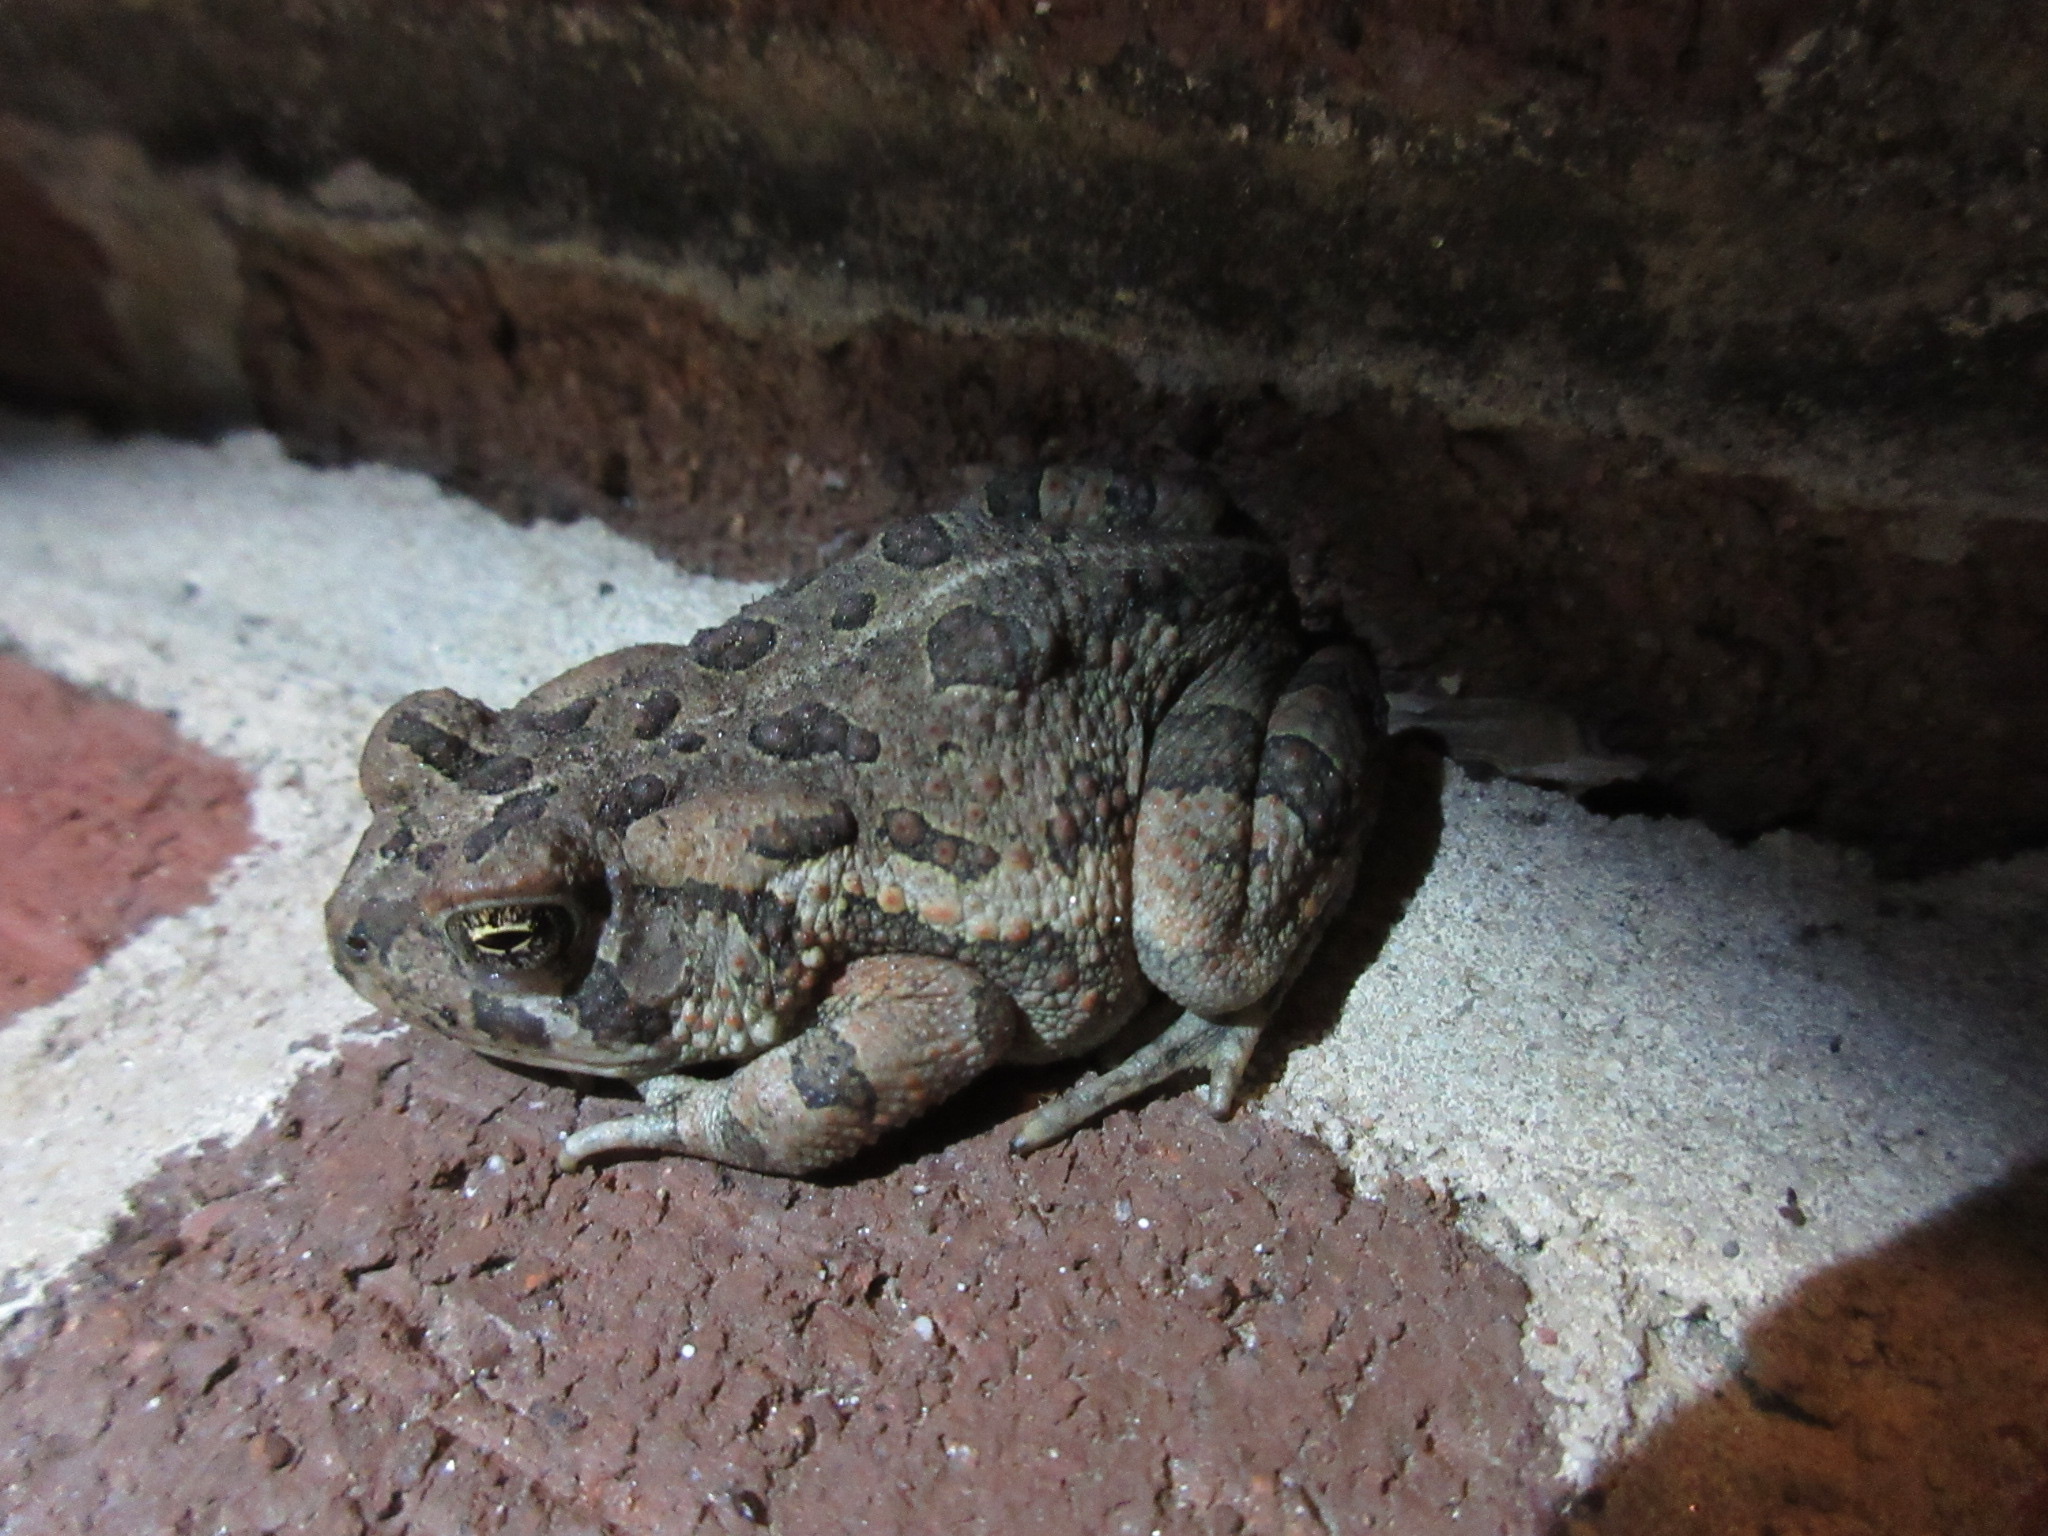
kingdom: Animalia
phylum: Chordata
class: Amphibia
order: Anura
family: Bufonidae
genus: Anaxyrus
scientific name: Anaxyrus fowleri
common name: Fowler's toad
